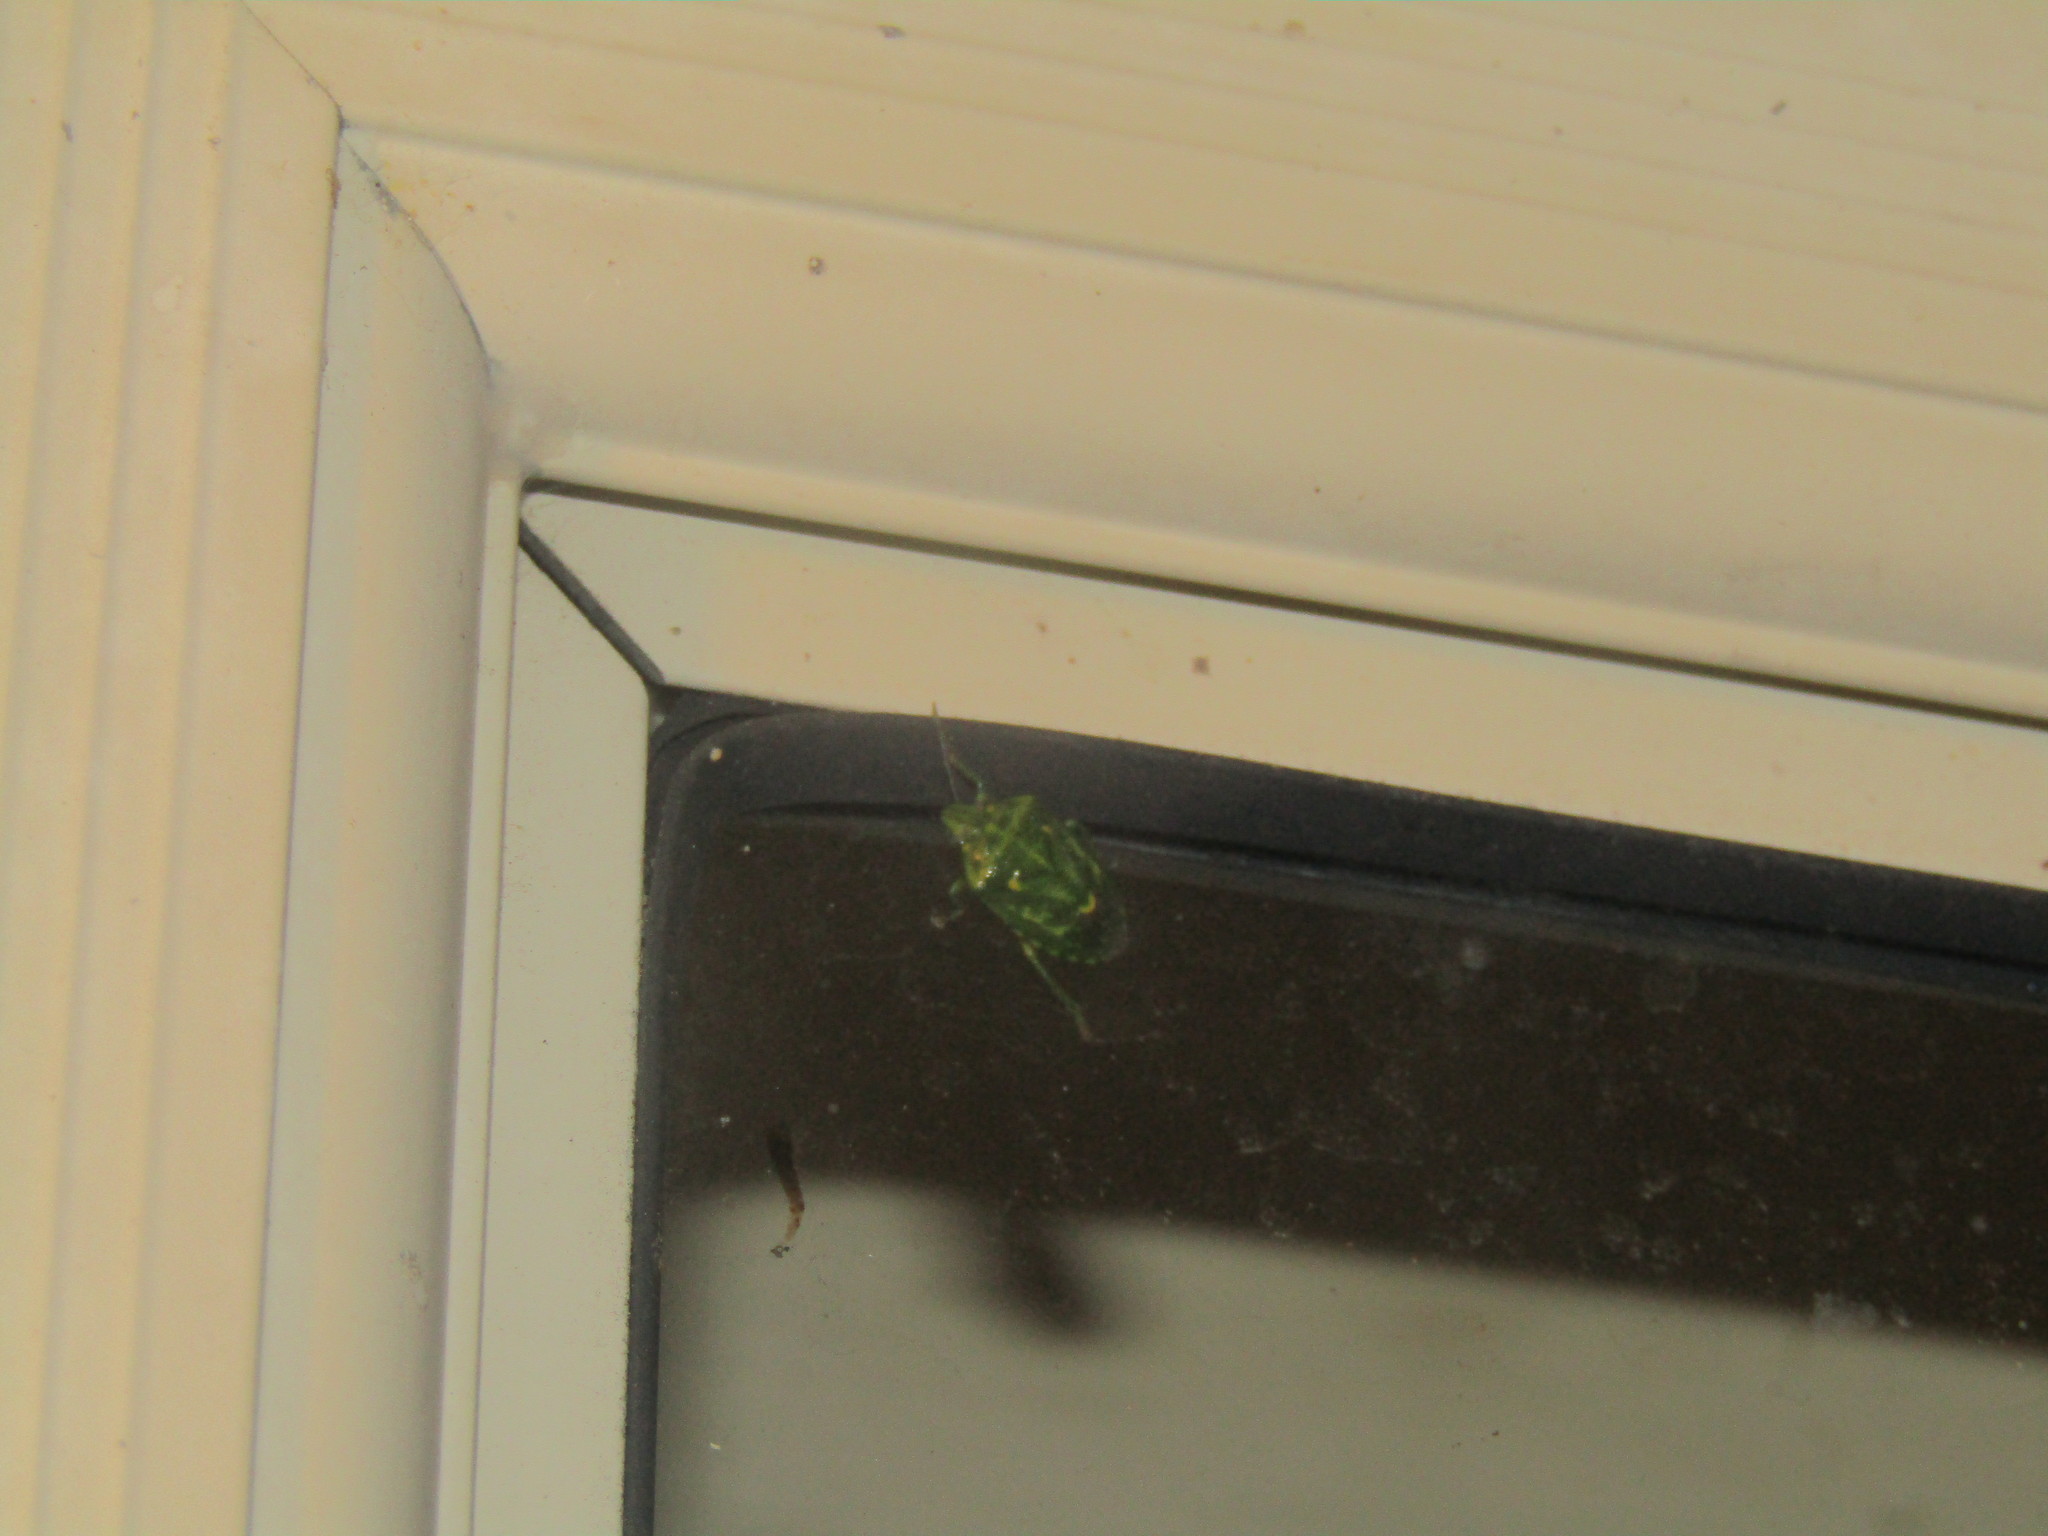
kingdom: Animalia
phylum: Arthropoda
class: Insecta
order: Hemiptera
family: Pentatomidae
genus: Banasa
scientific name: Banasa euchlora
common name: Cedar berry bug
